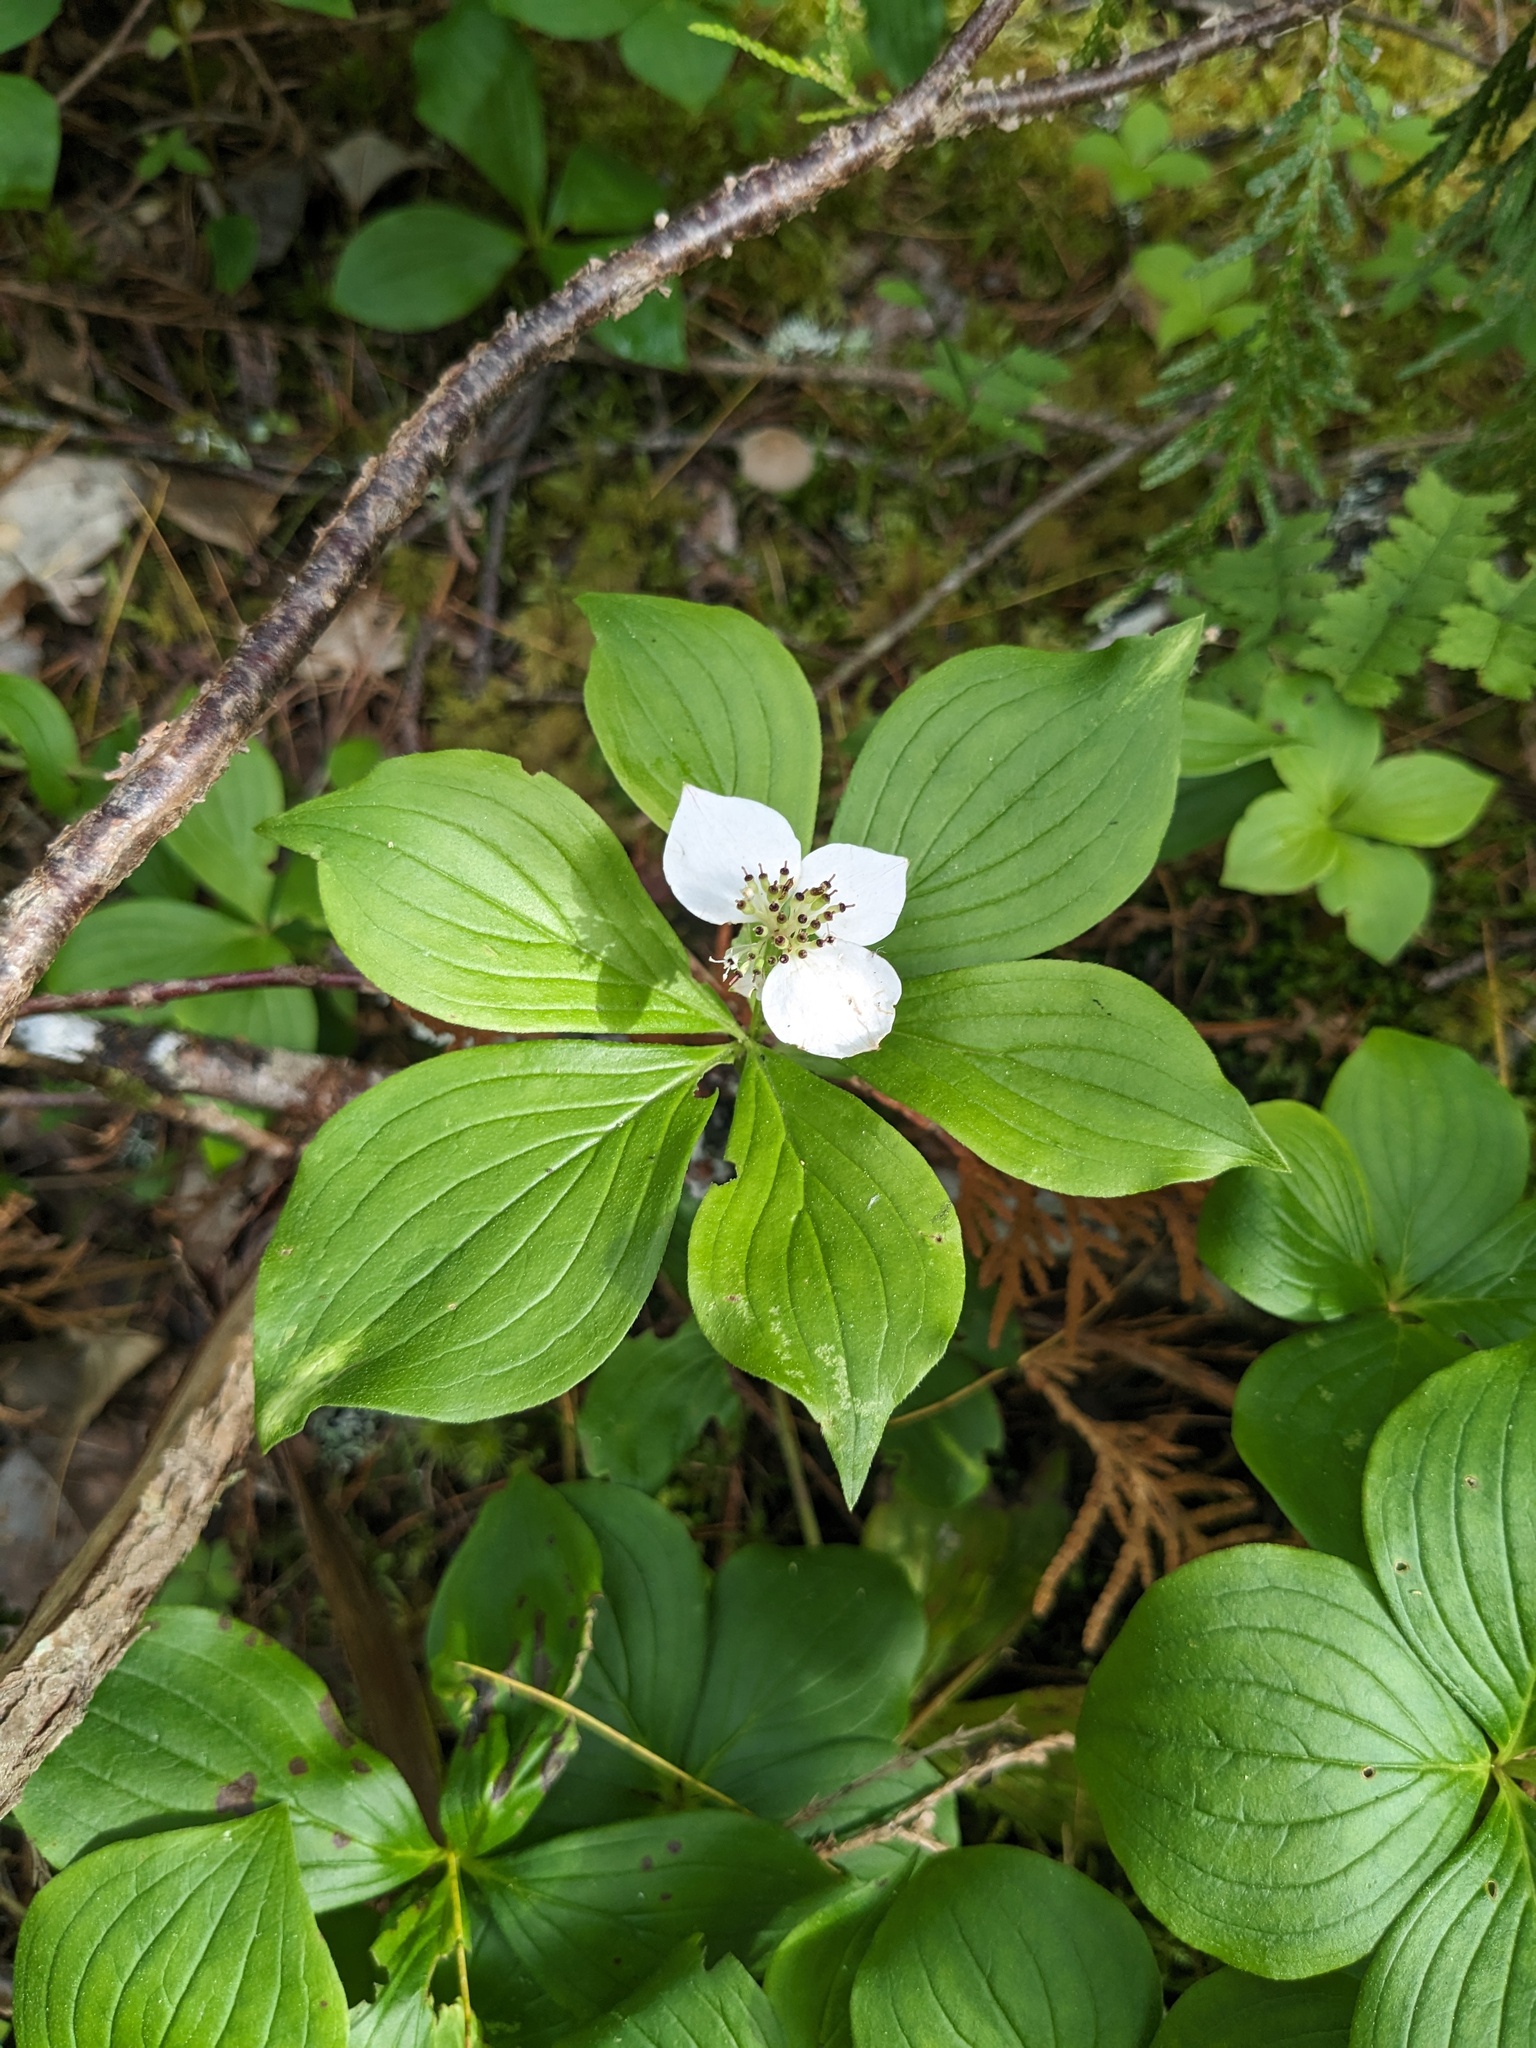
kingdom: Plantae
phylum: Tracheophyta
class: Magnoliopsida
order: Cornales
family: Cornaceae
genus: Cornus
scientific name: Cornus canadensis
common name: Creeping dogwood
